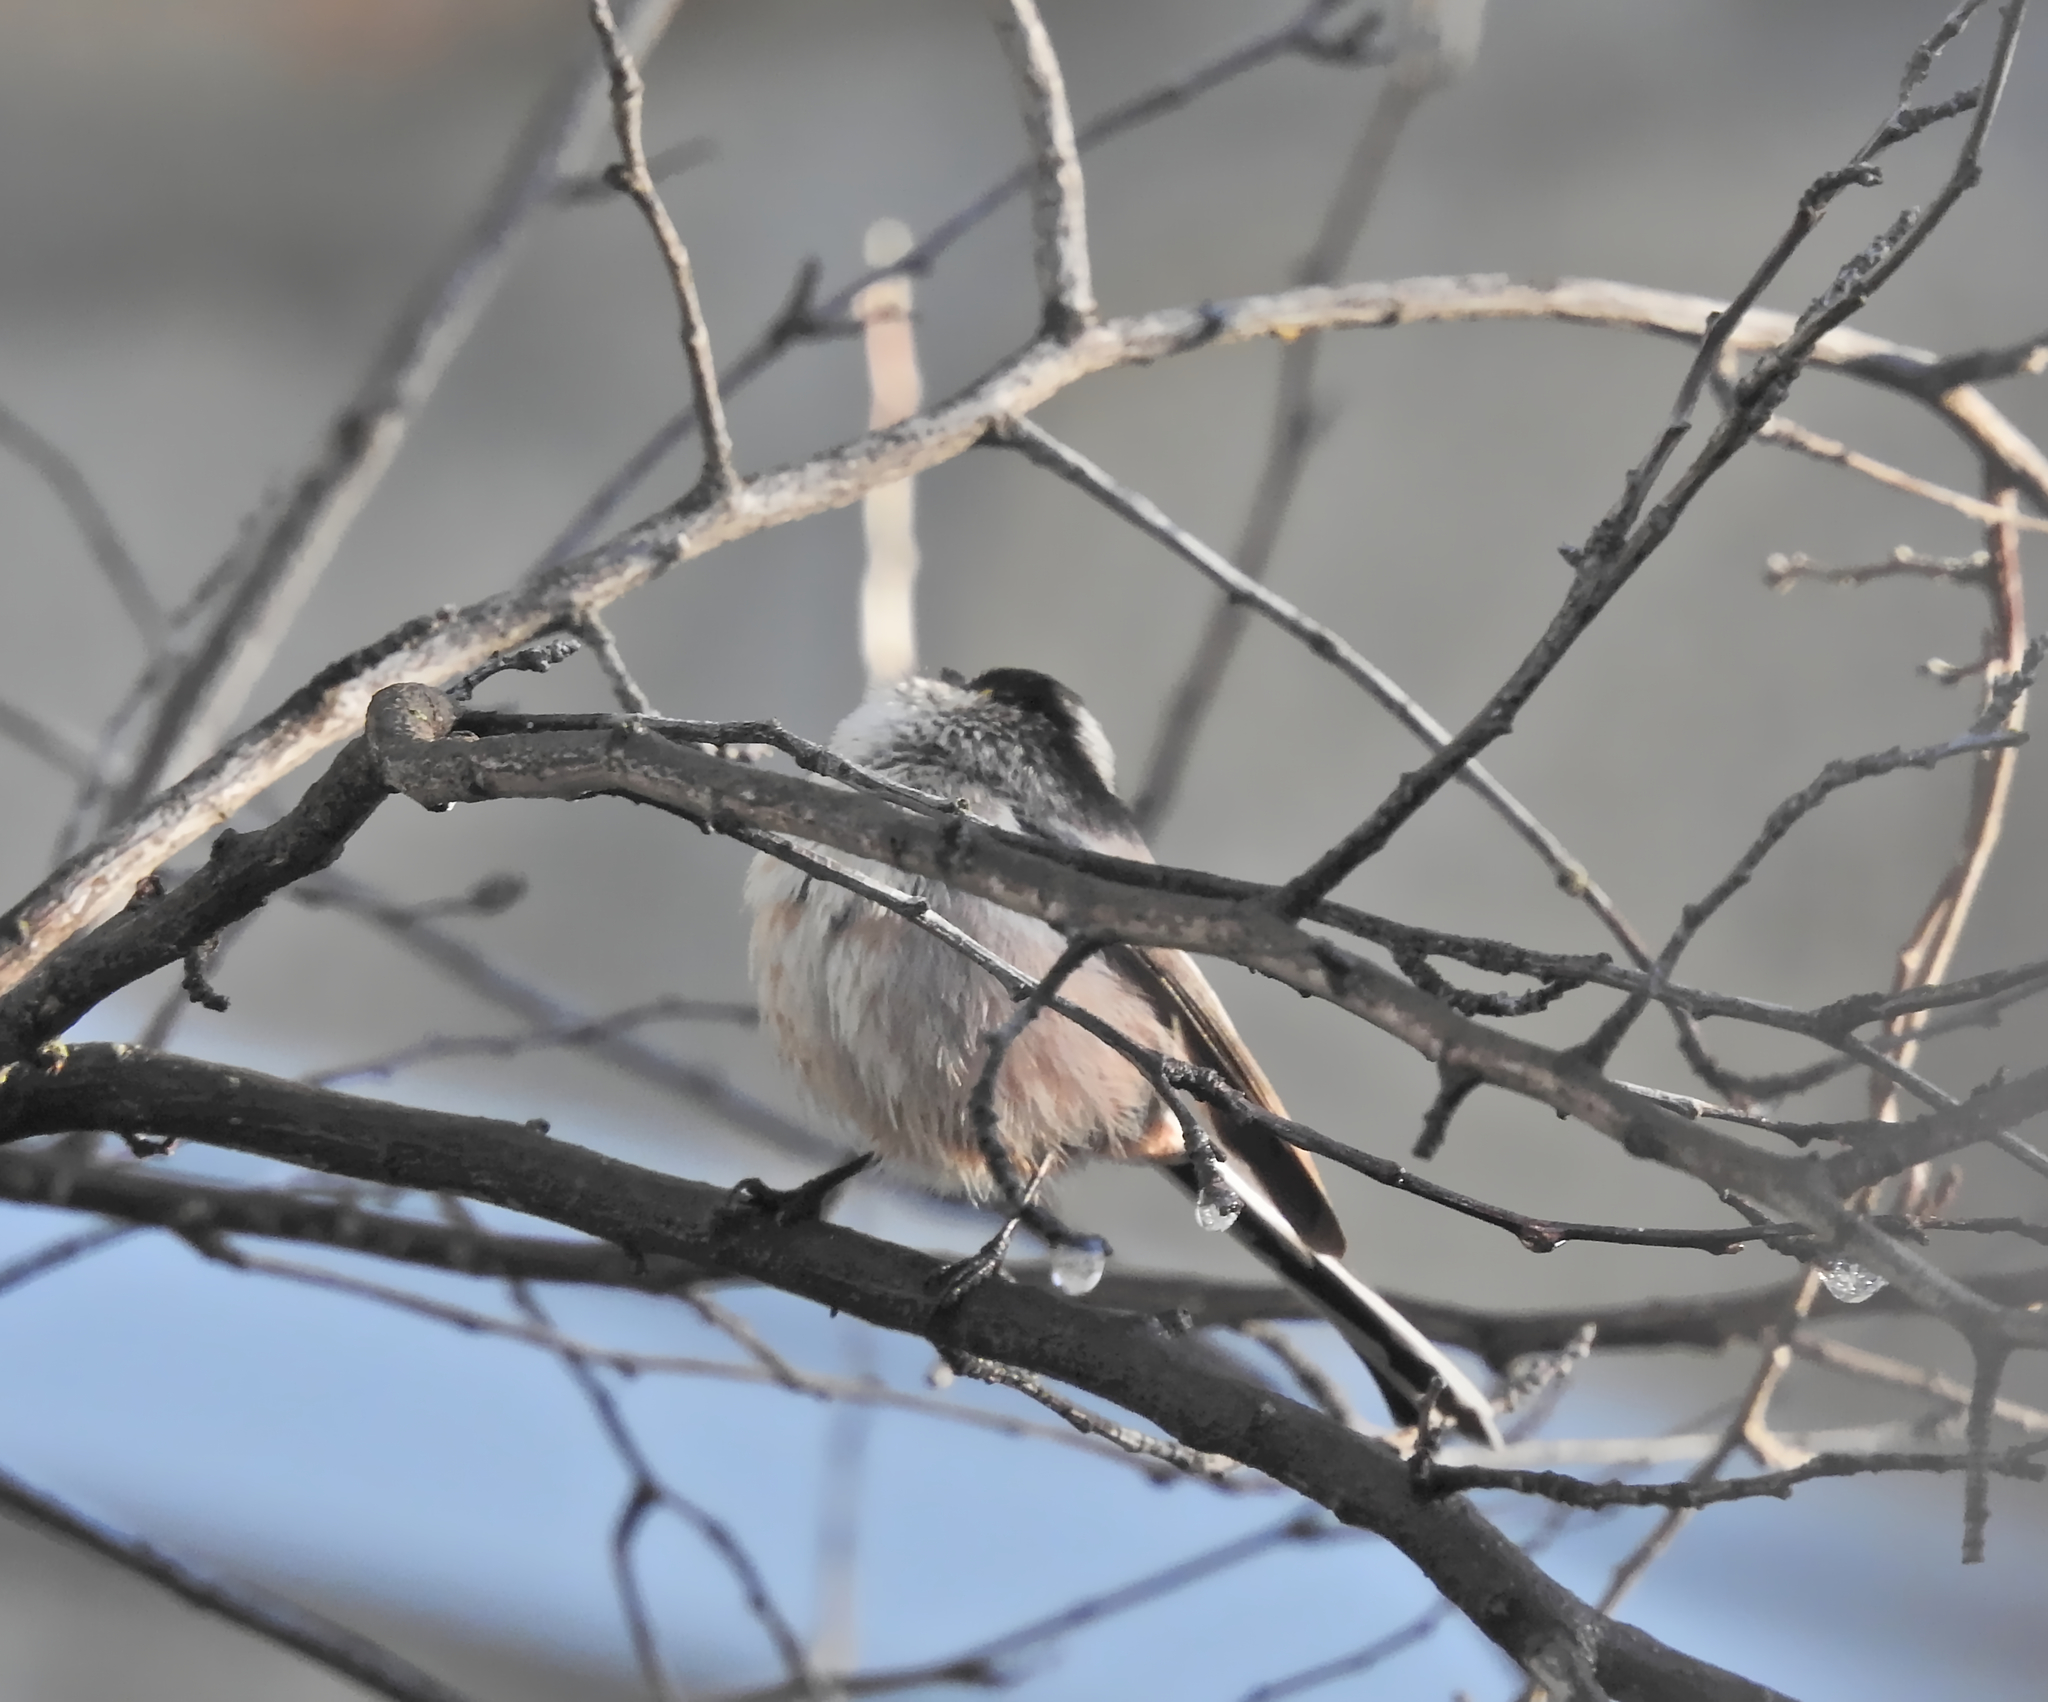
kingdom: Animalia
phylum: Chordata
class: Aves
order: Passeriformes
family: Aegithalidae
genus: Aegithalos
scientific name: Aegithalos caudatus
